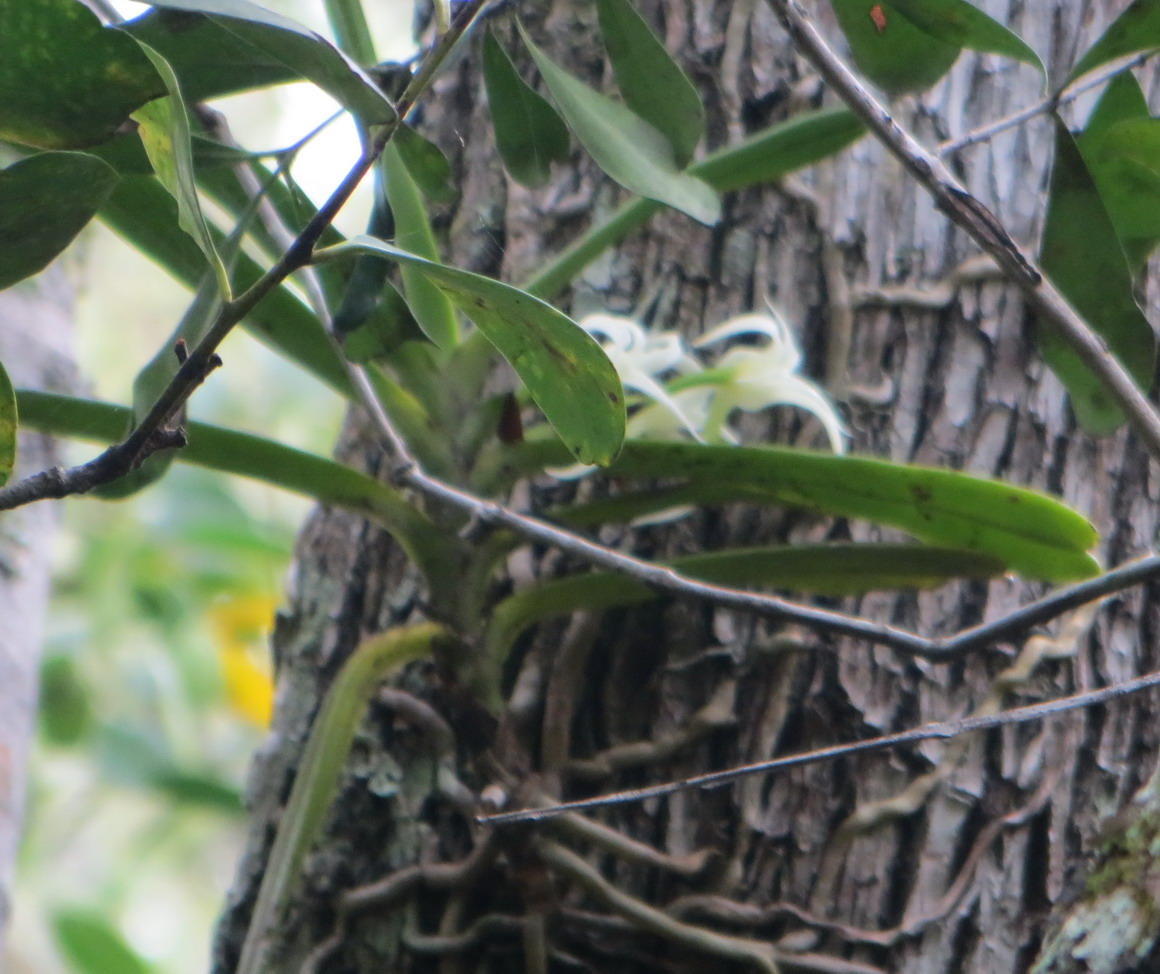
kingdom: Plantae
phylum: Tracheophyta
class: Liliopsida
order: Asparagales
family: Orchidaceae
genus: Cyrtorchis
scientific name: Cyrtorchis arcuata
